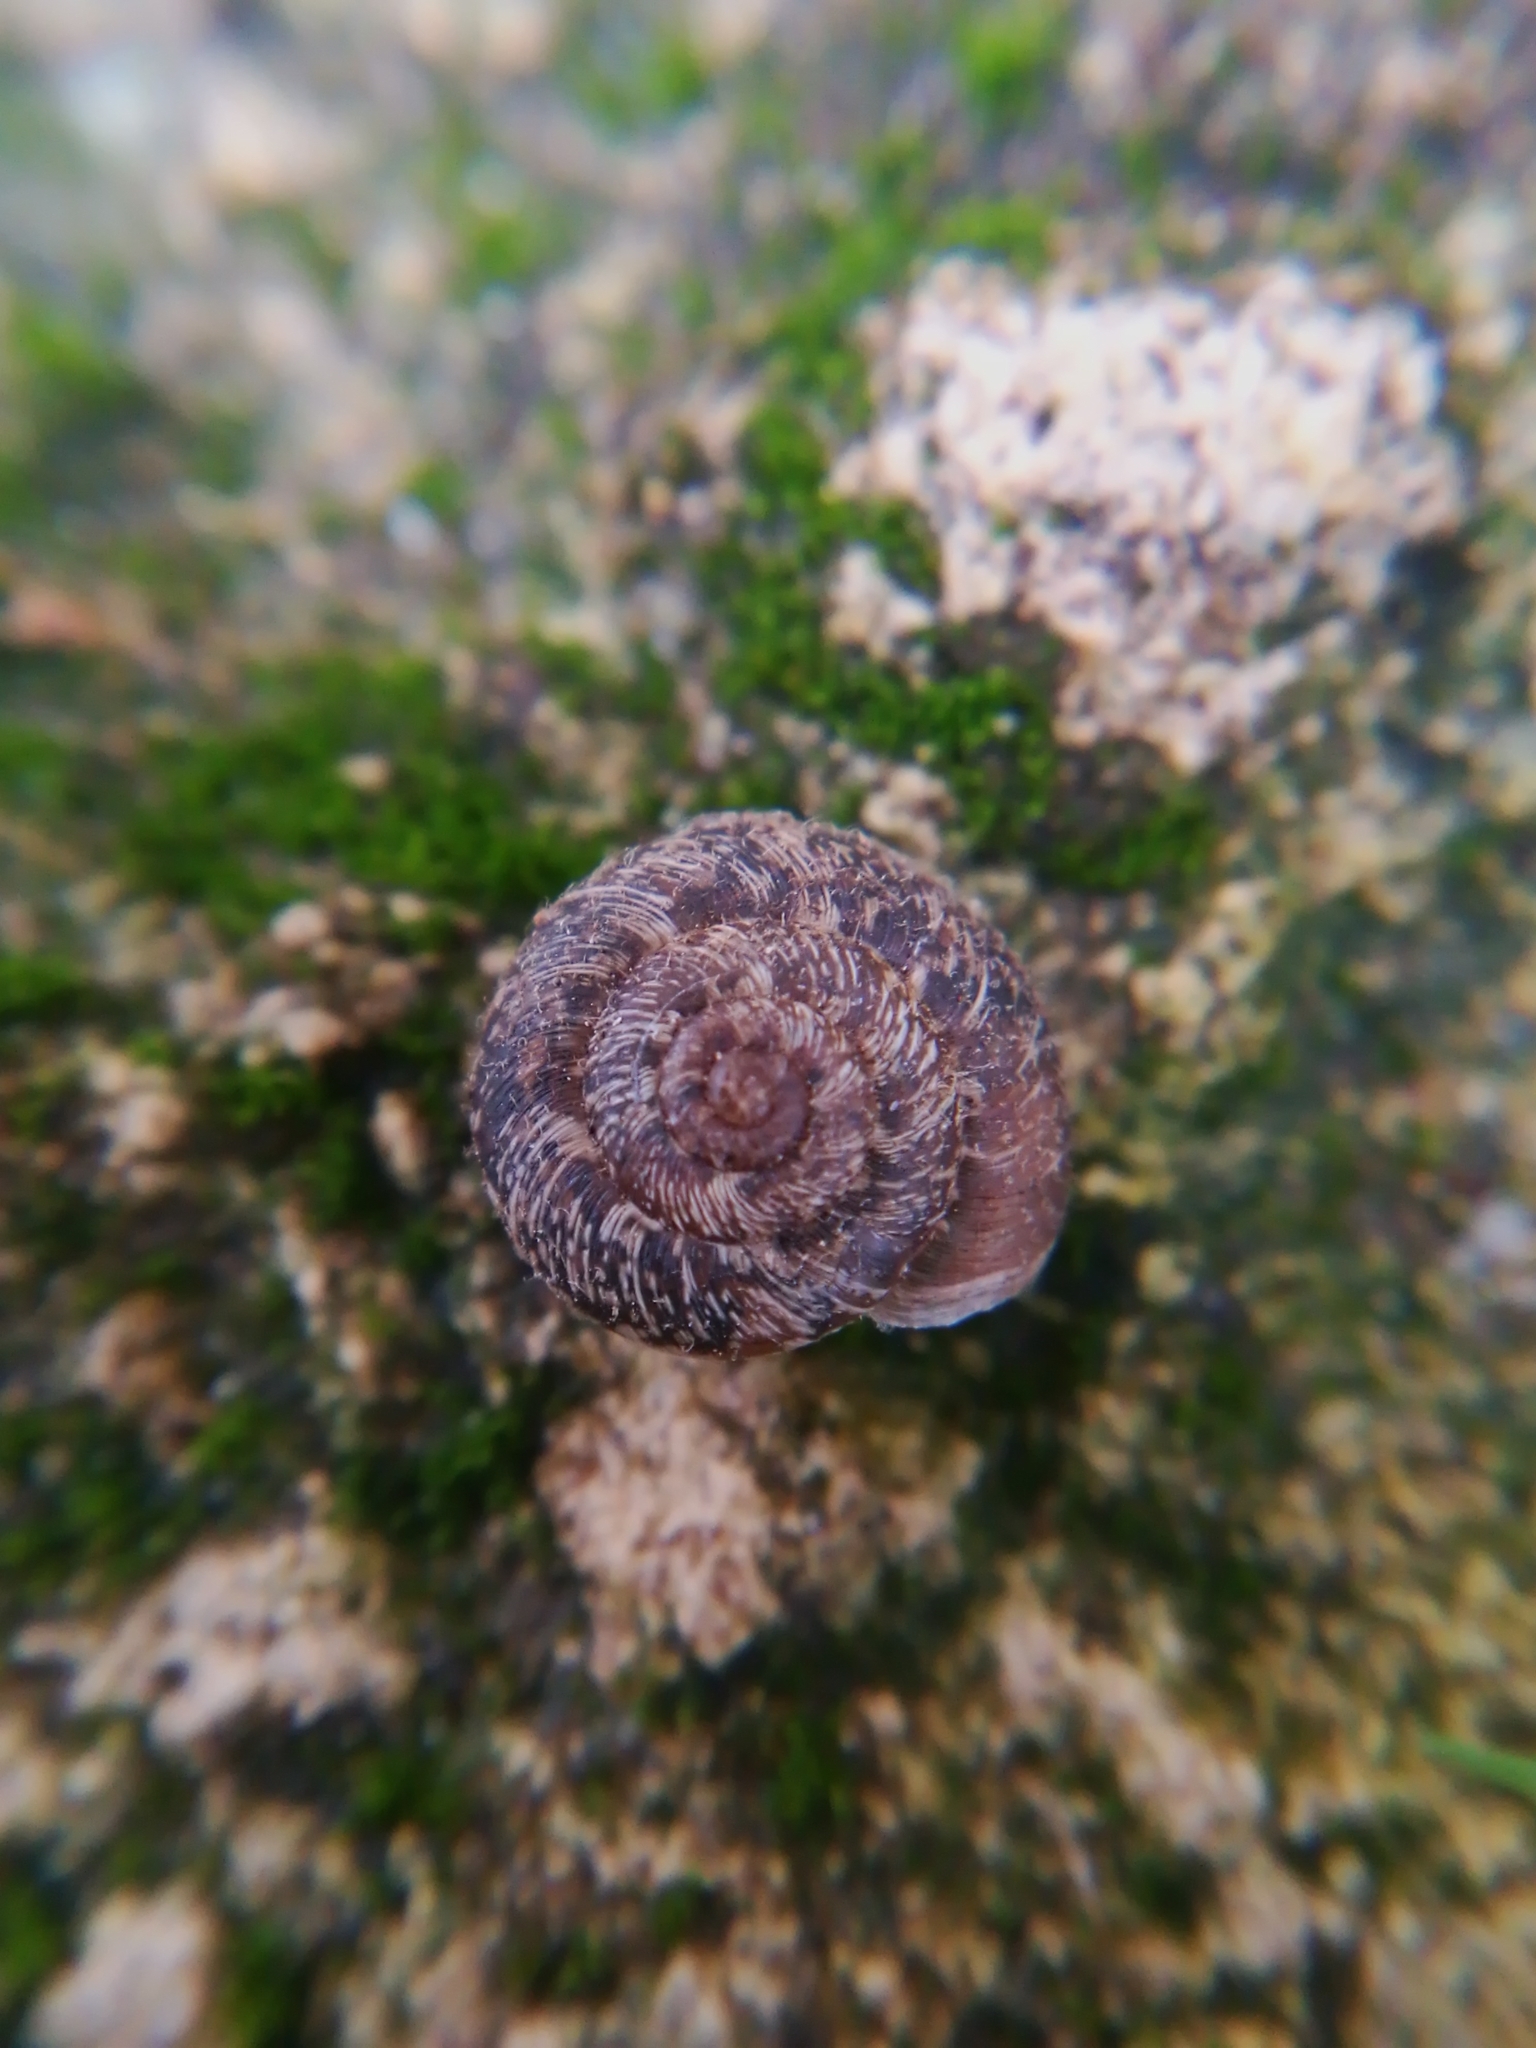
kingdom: Animalia
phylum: Mollusca
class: Gastropoda
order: Stylommatophora
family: Geomitridae
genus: Xerotricha
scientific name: Xerotricha conspurcata
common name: Snail
